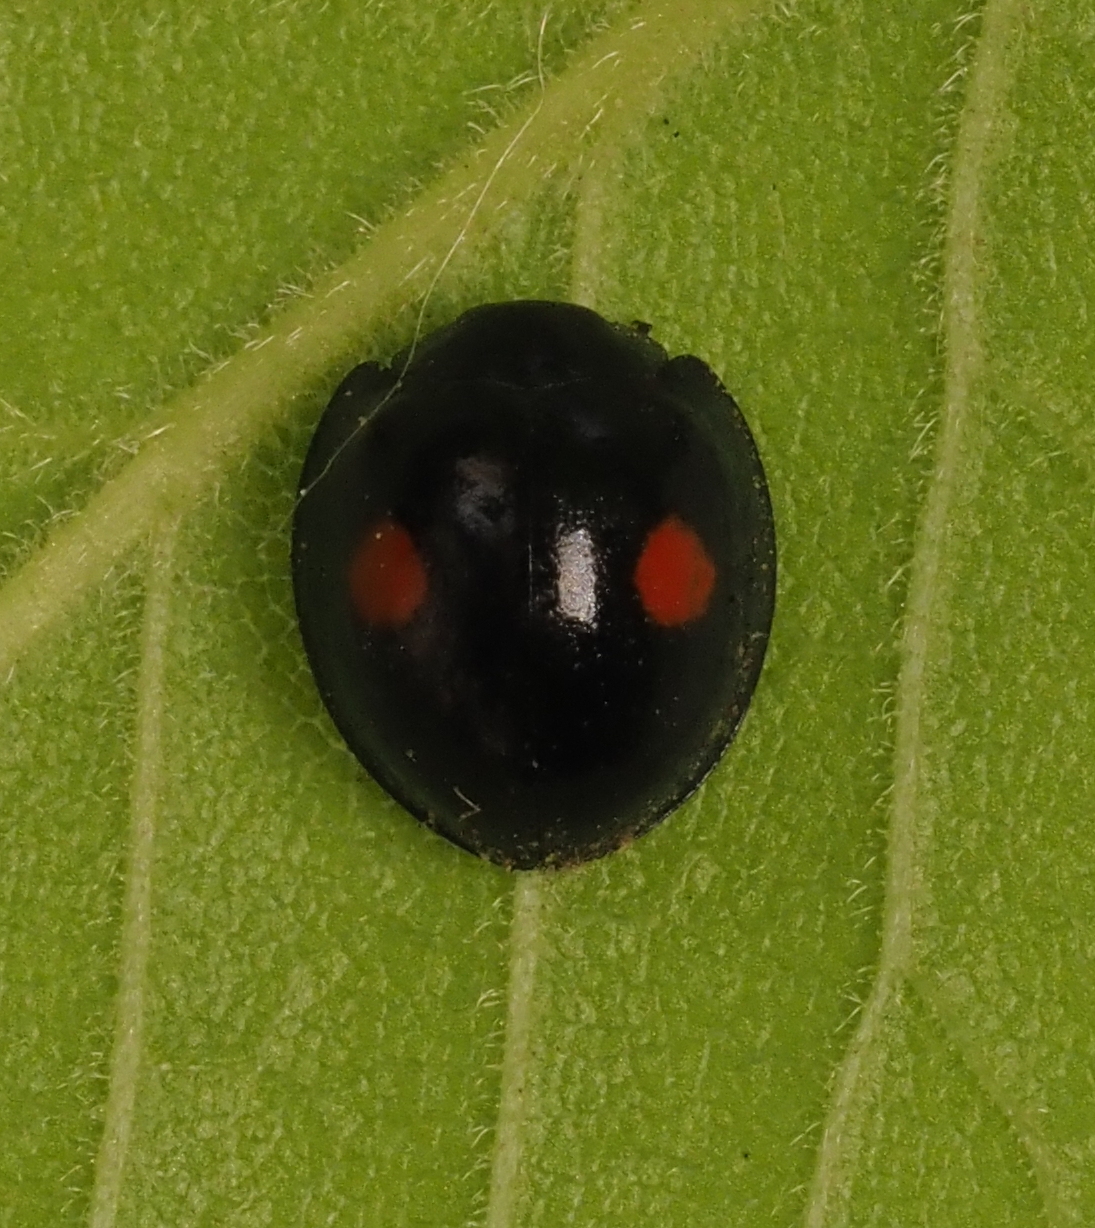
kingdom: Animalia
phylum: Arthropoda
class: Insecta
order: Coleoptera
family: Coccinellidae
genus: Chilocorus
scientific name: Chilocorus stigma
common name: Twicestabbed lady beetle
